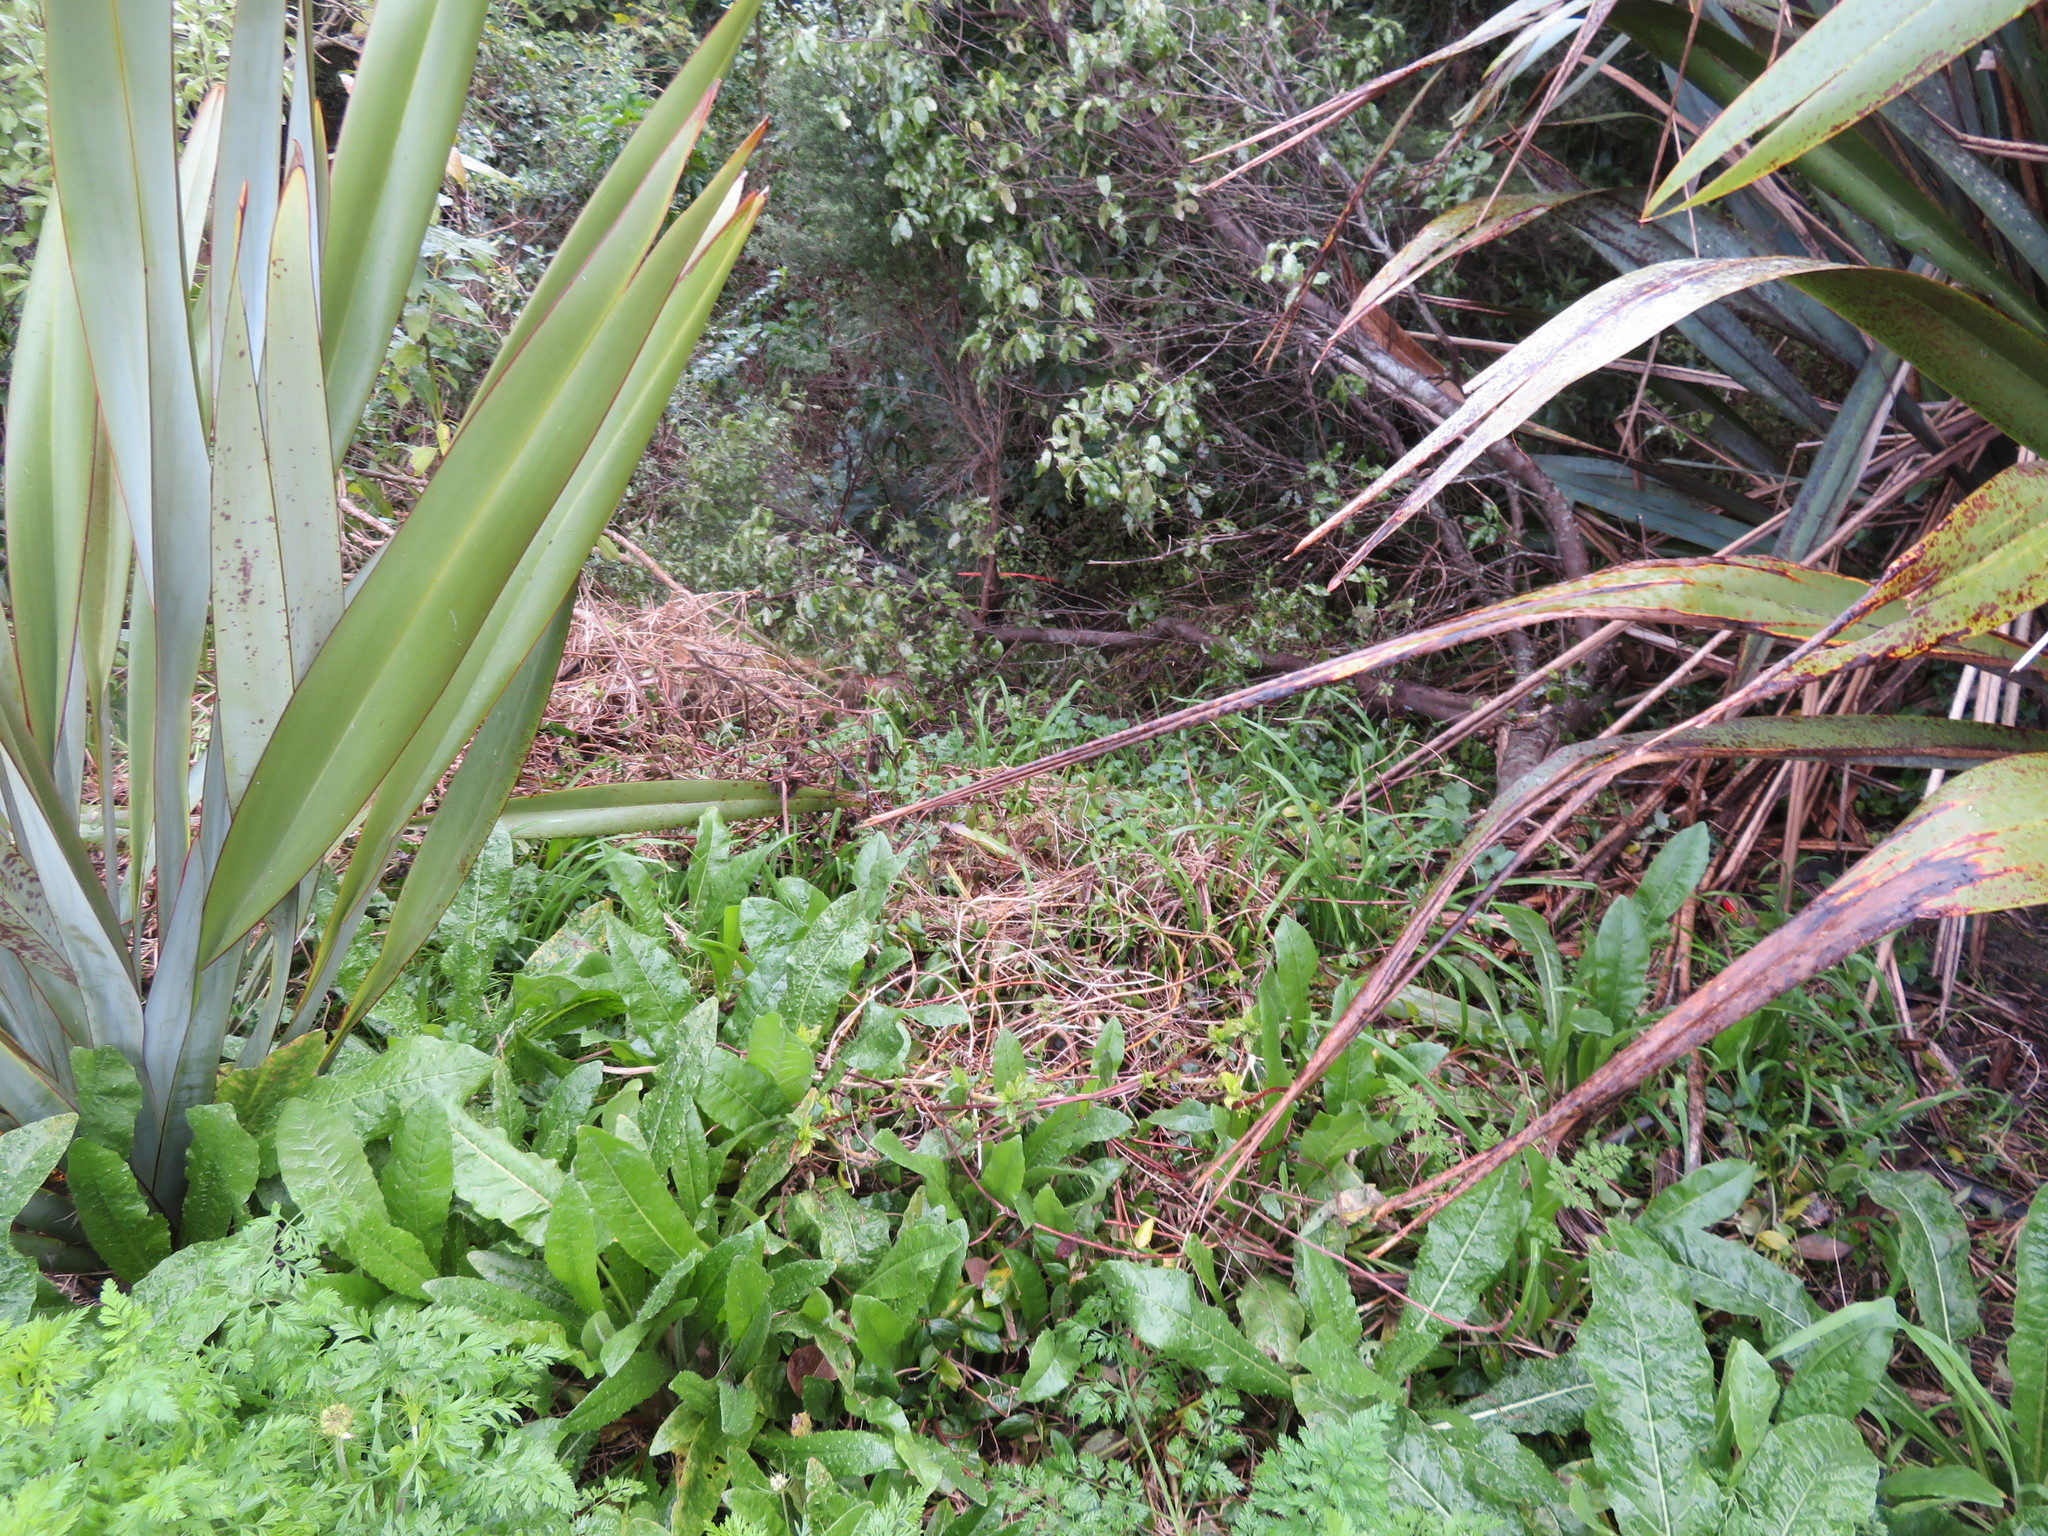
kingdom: Plantae
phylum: Tracheophyta
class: Magnoliopsida
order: Asterales
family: Asteraceae
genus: Helminthotheca
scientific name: Helminthotheca echioides
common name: Ox-tongue
